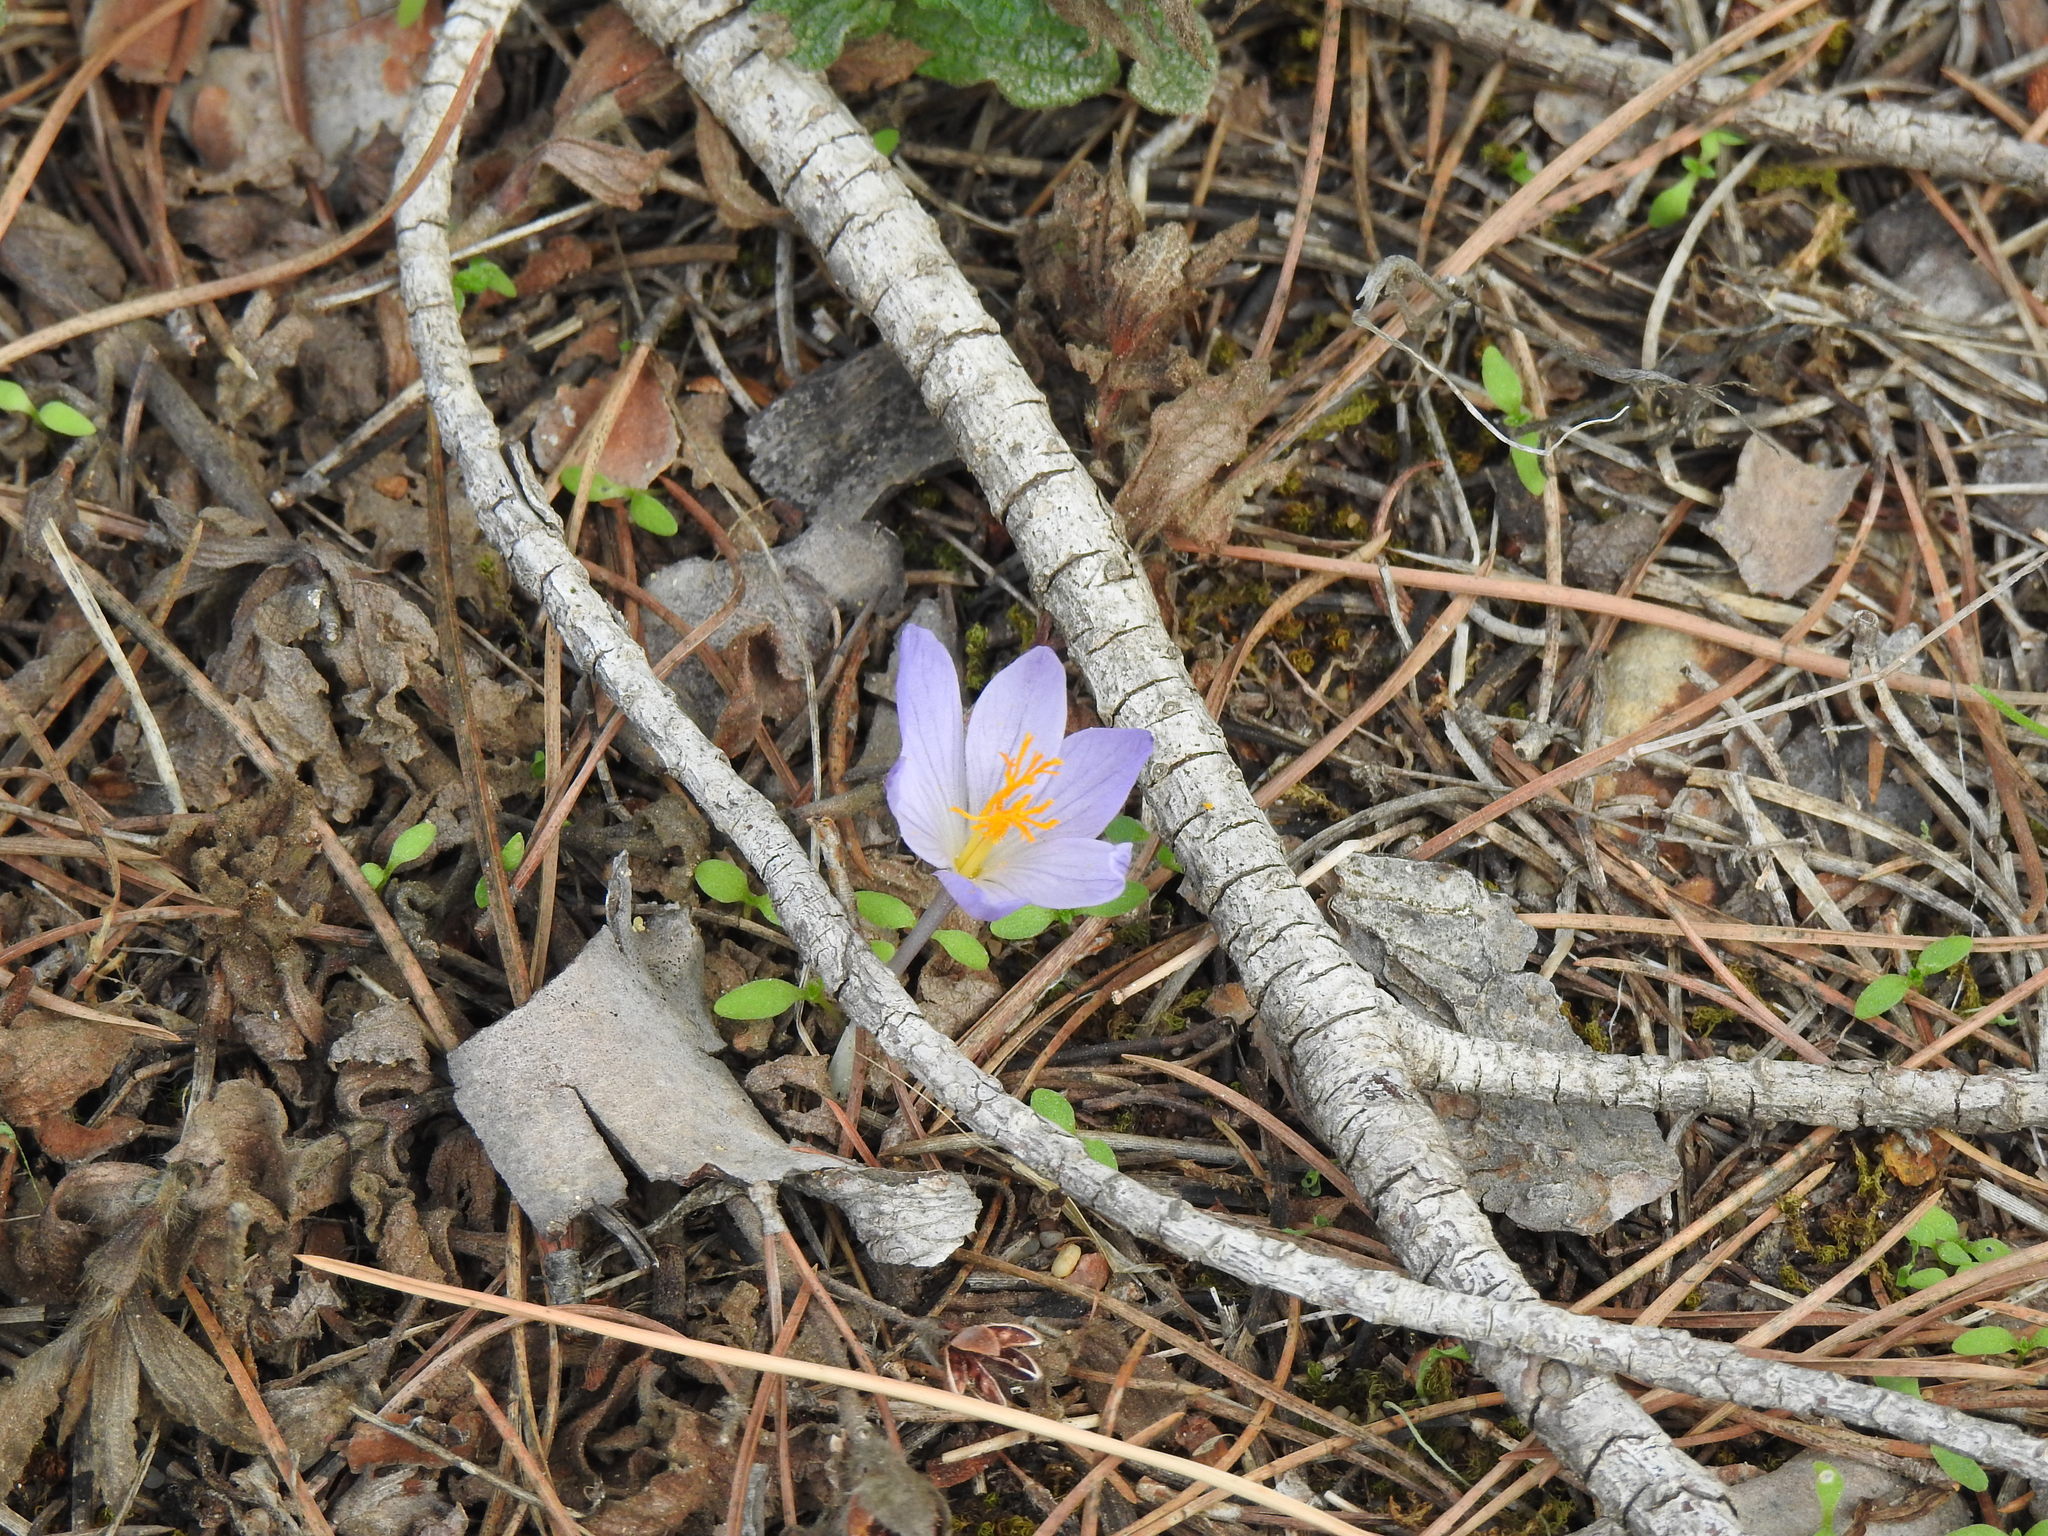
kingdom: Plantae
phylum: Tracheophyta
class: Liliopsida
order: Asparagales
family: Iridaceae
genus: Crocus
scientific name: Crocus serotinus
